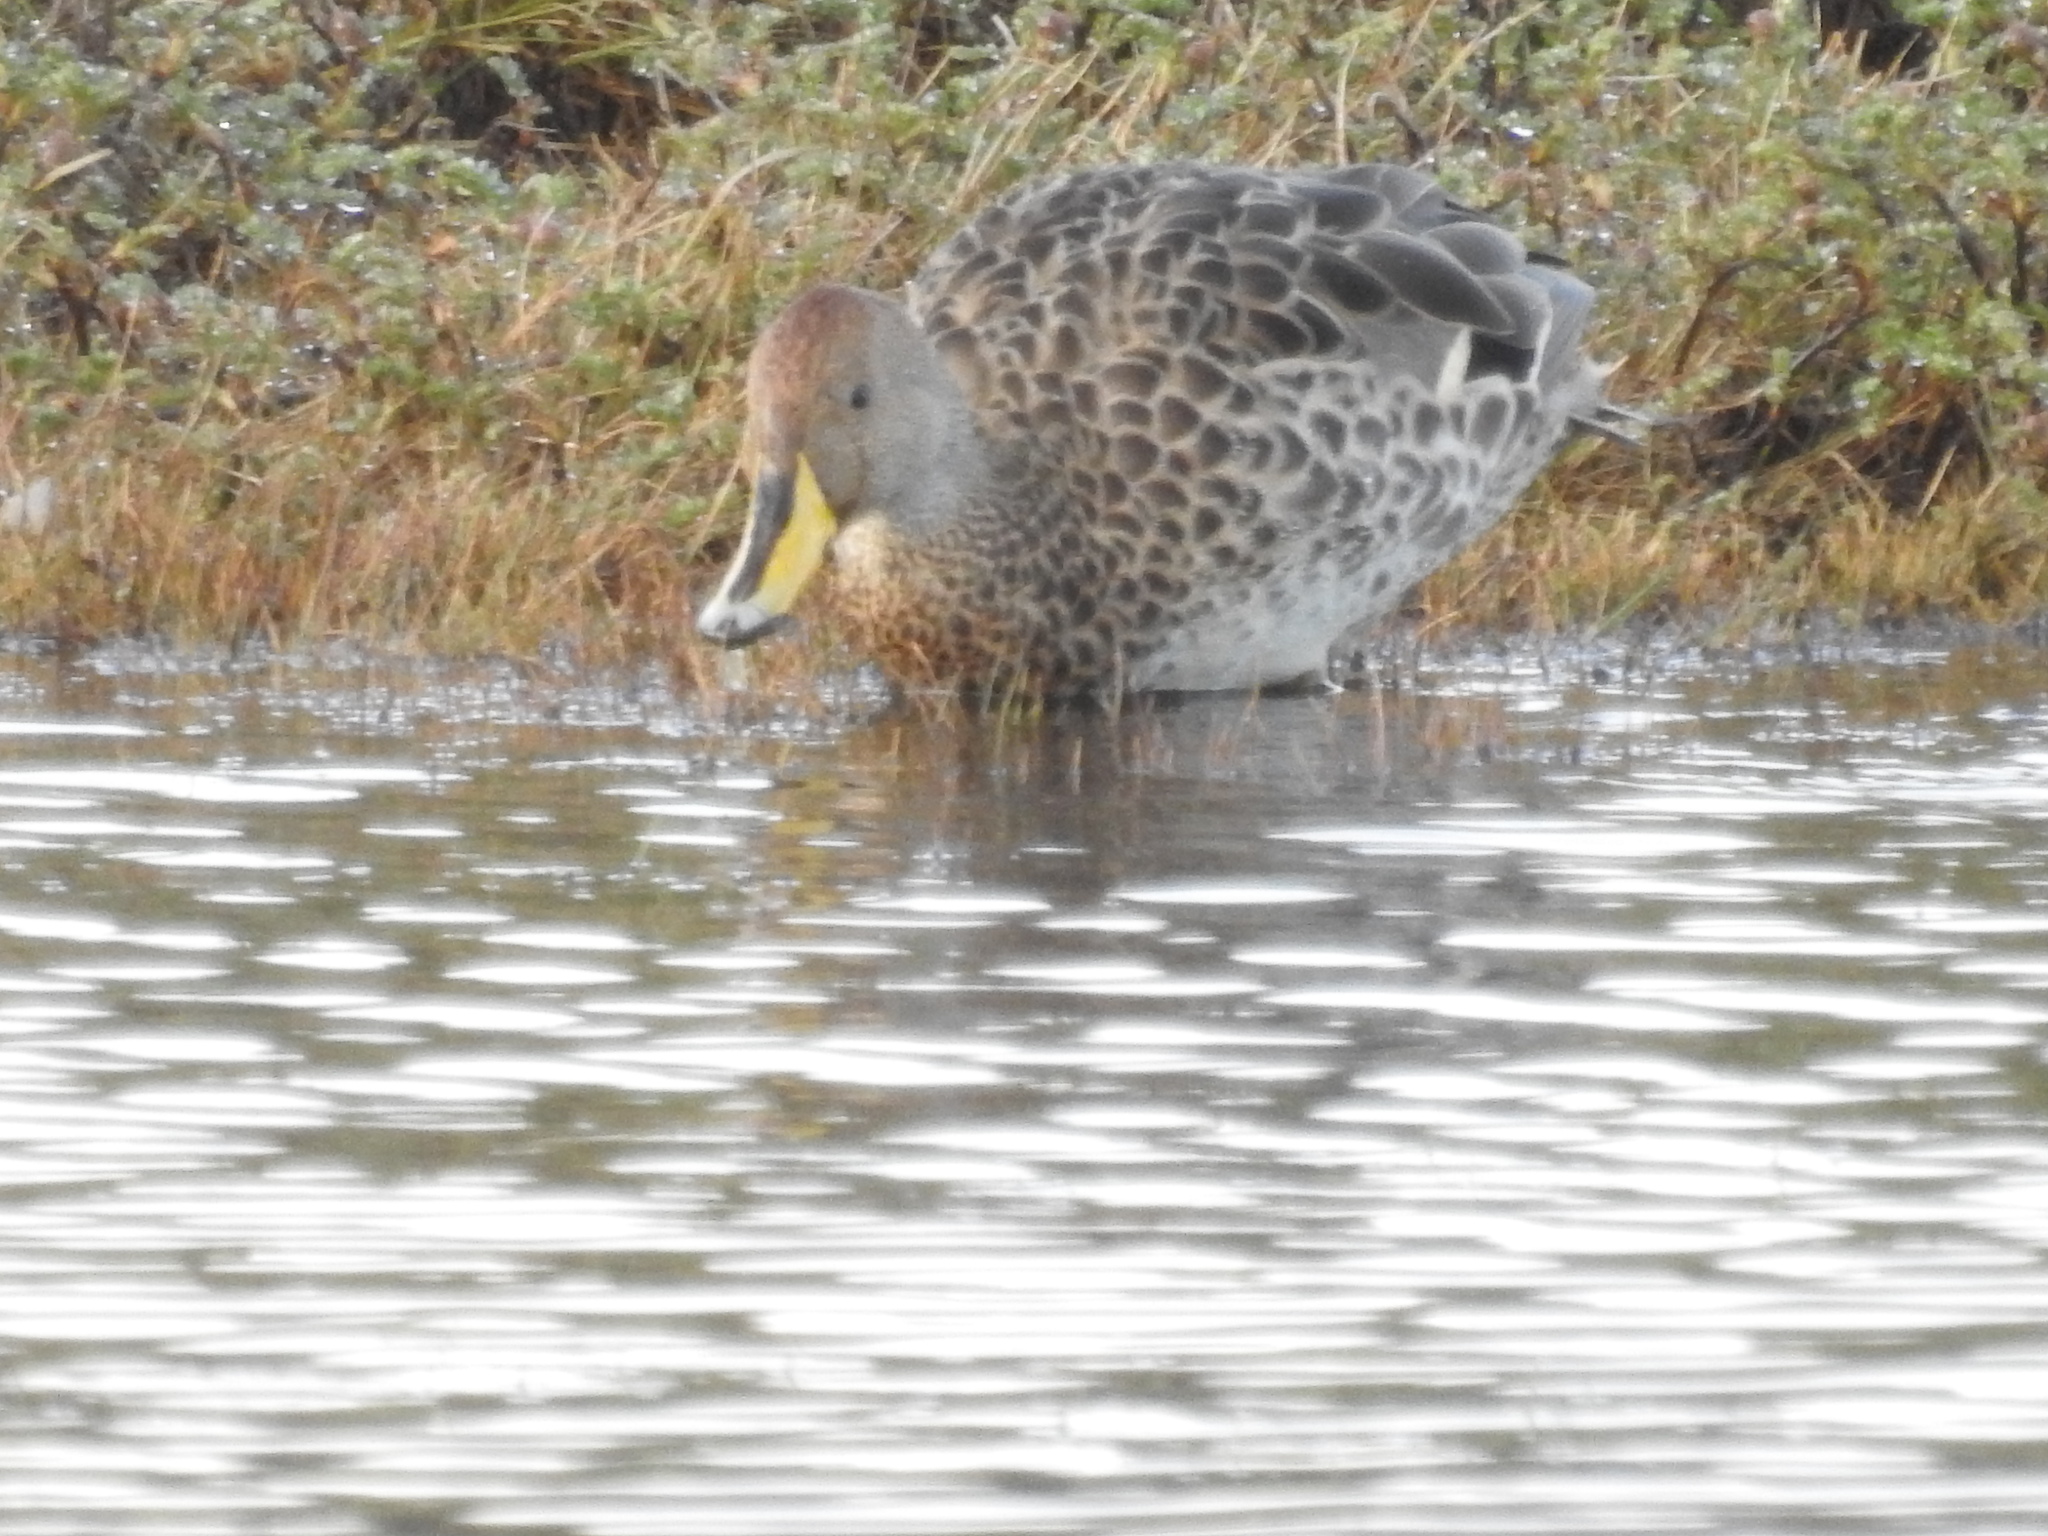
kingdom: Animalia
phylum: Chordata
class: Aves
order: Anseriformes
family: Anatidae
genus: Anas
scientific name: Anas georgica
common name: Yellow-billed pintail
